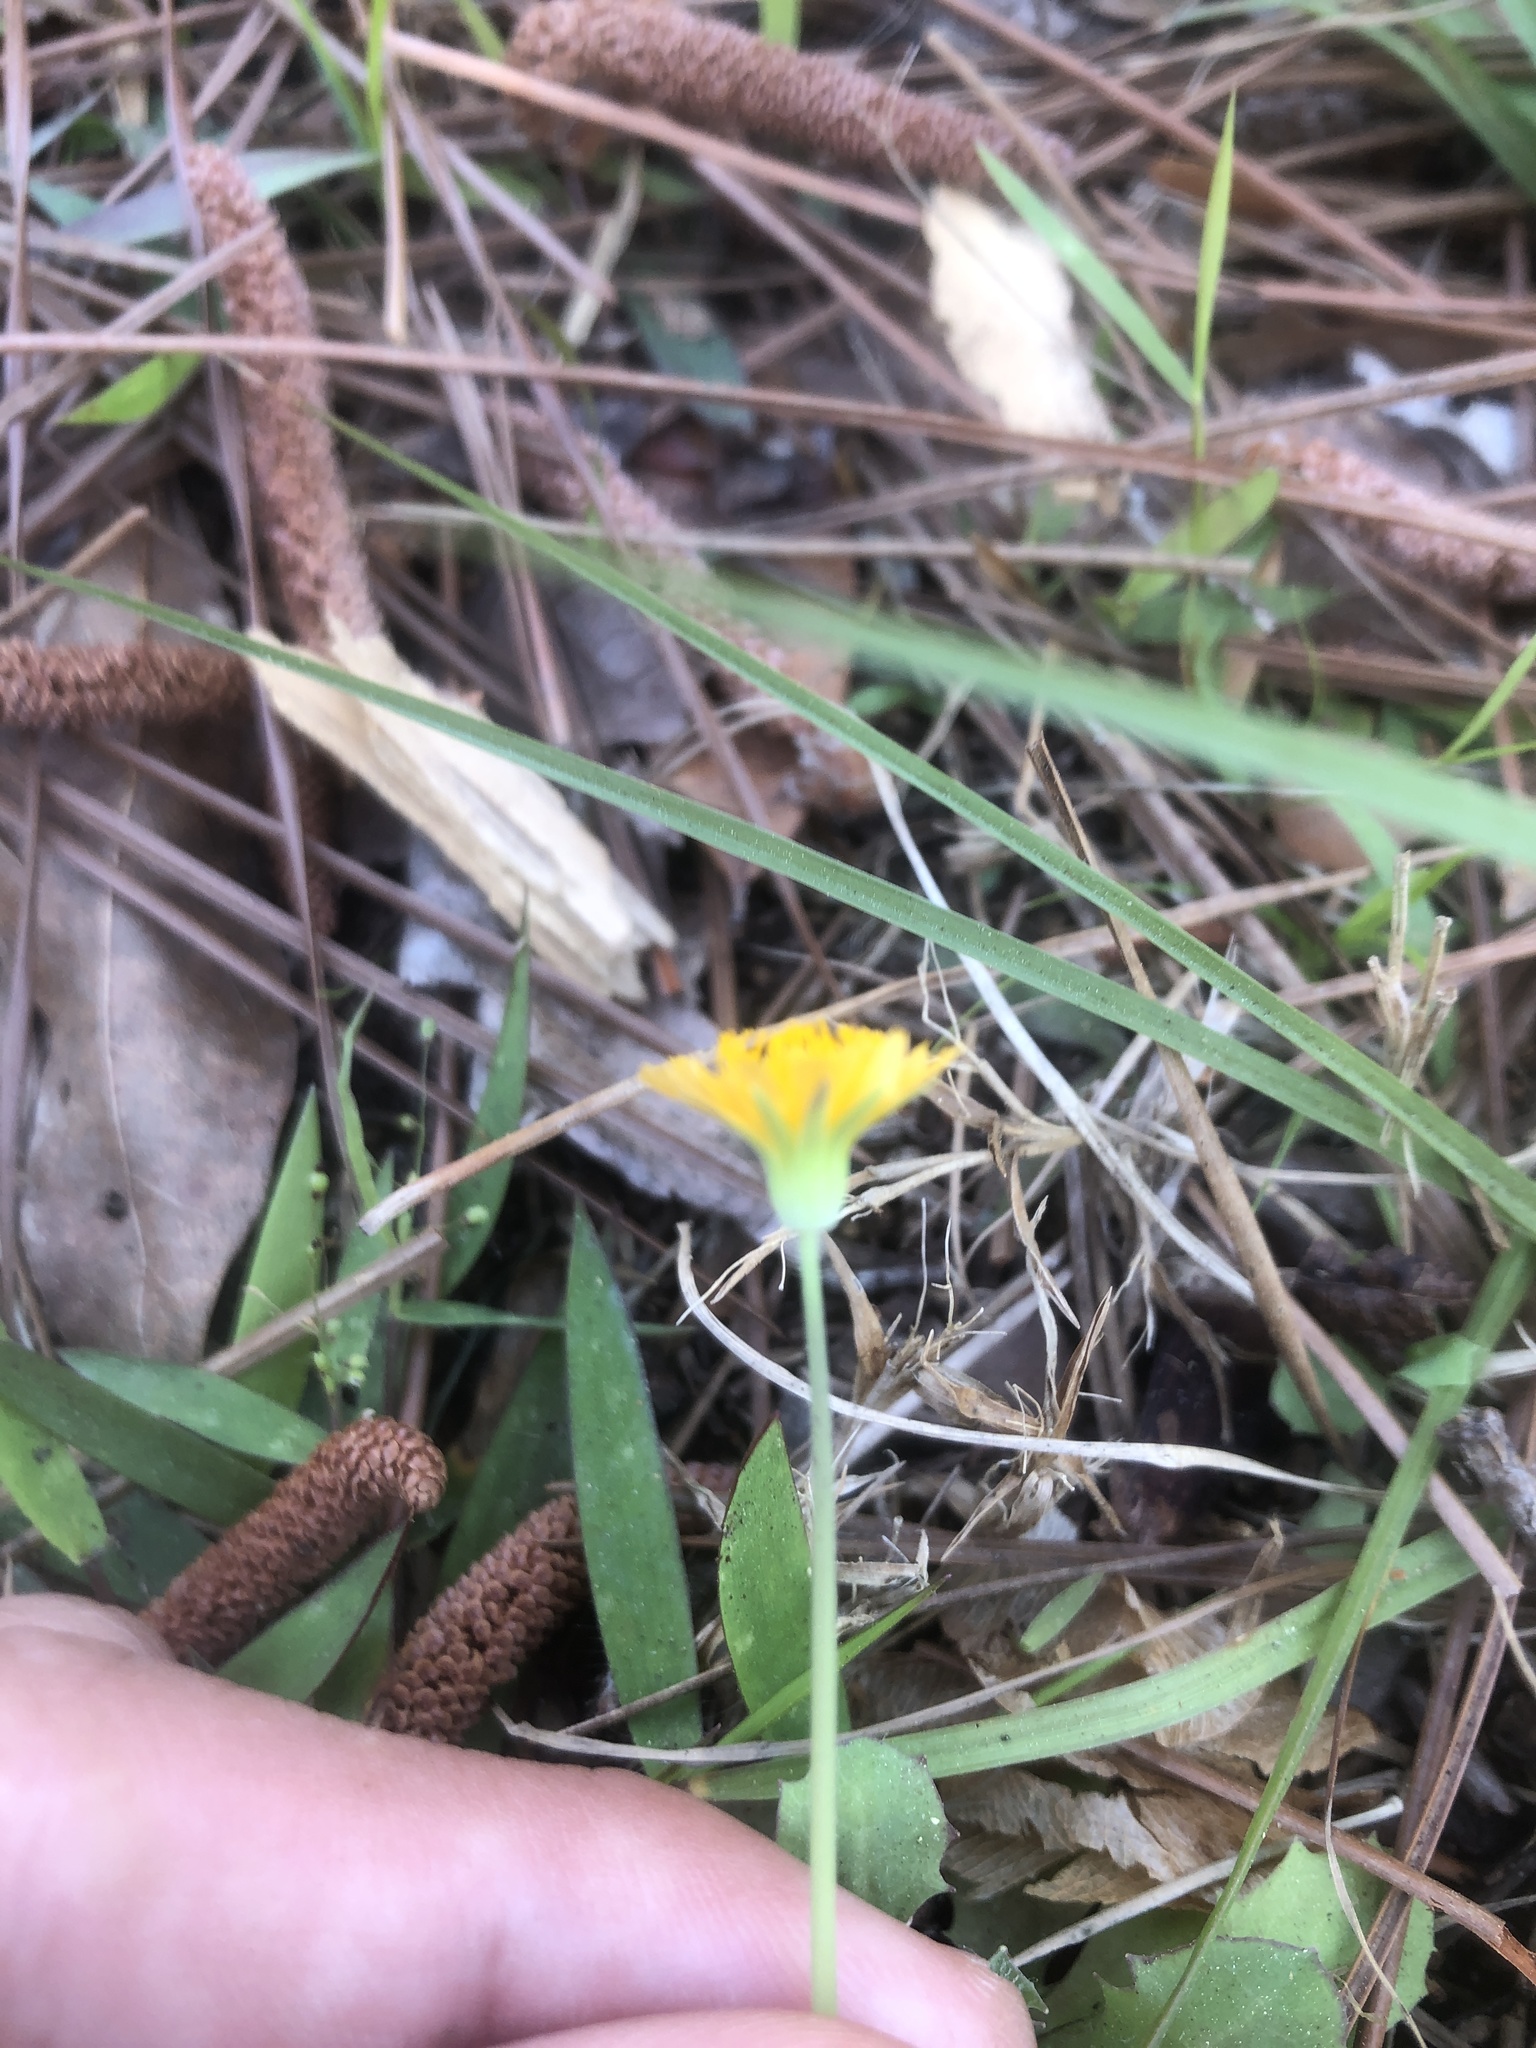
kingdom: Plantae
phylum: Tracheophyta
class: Magnoliopsida
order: Asterales
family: Asteraceae
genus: Krigia
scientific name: Krigia virginica
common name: Virginia dwarf-dandelion
